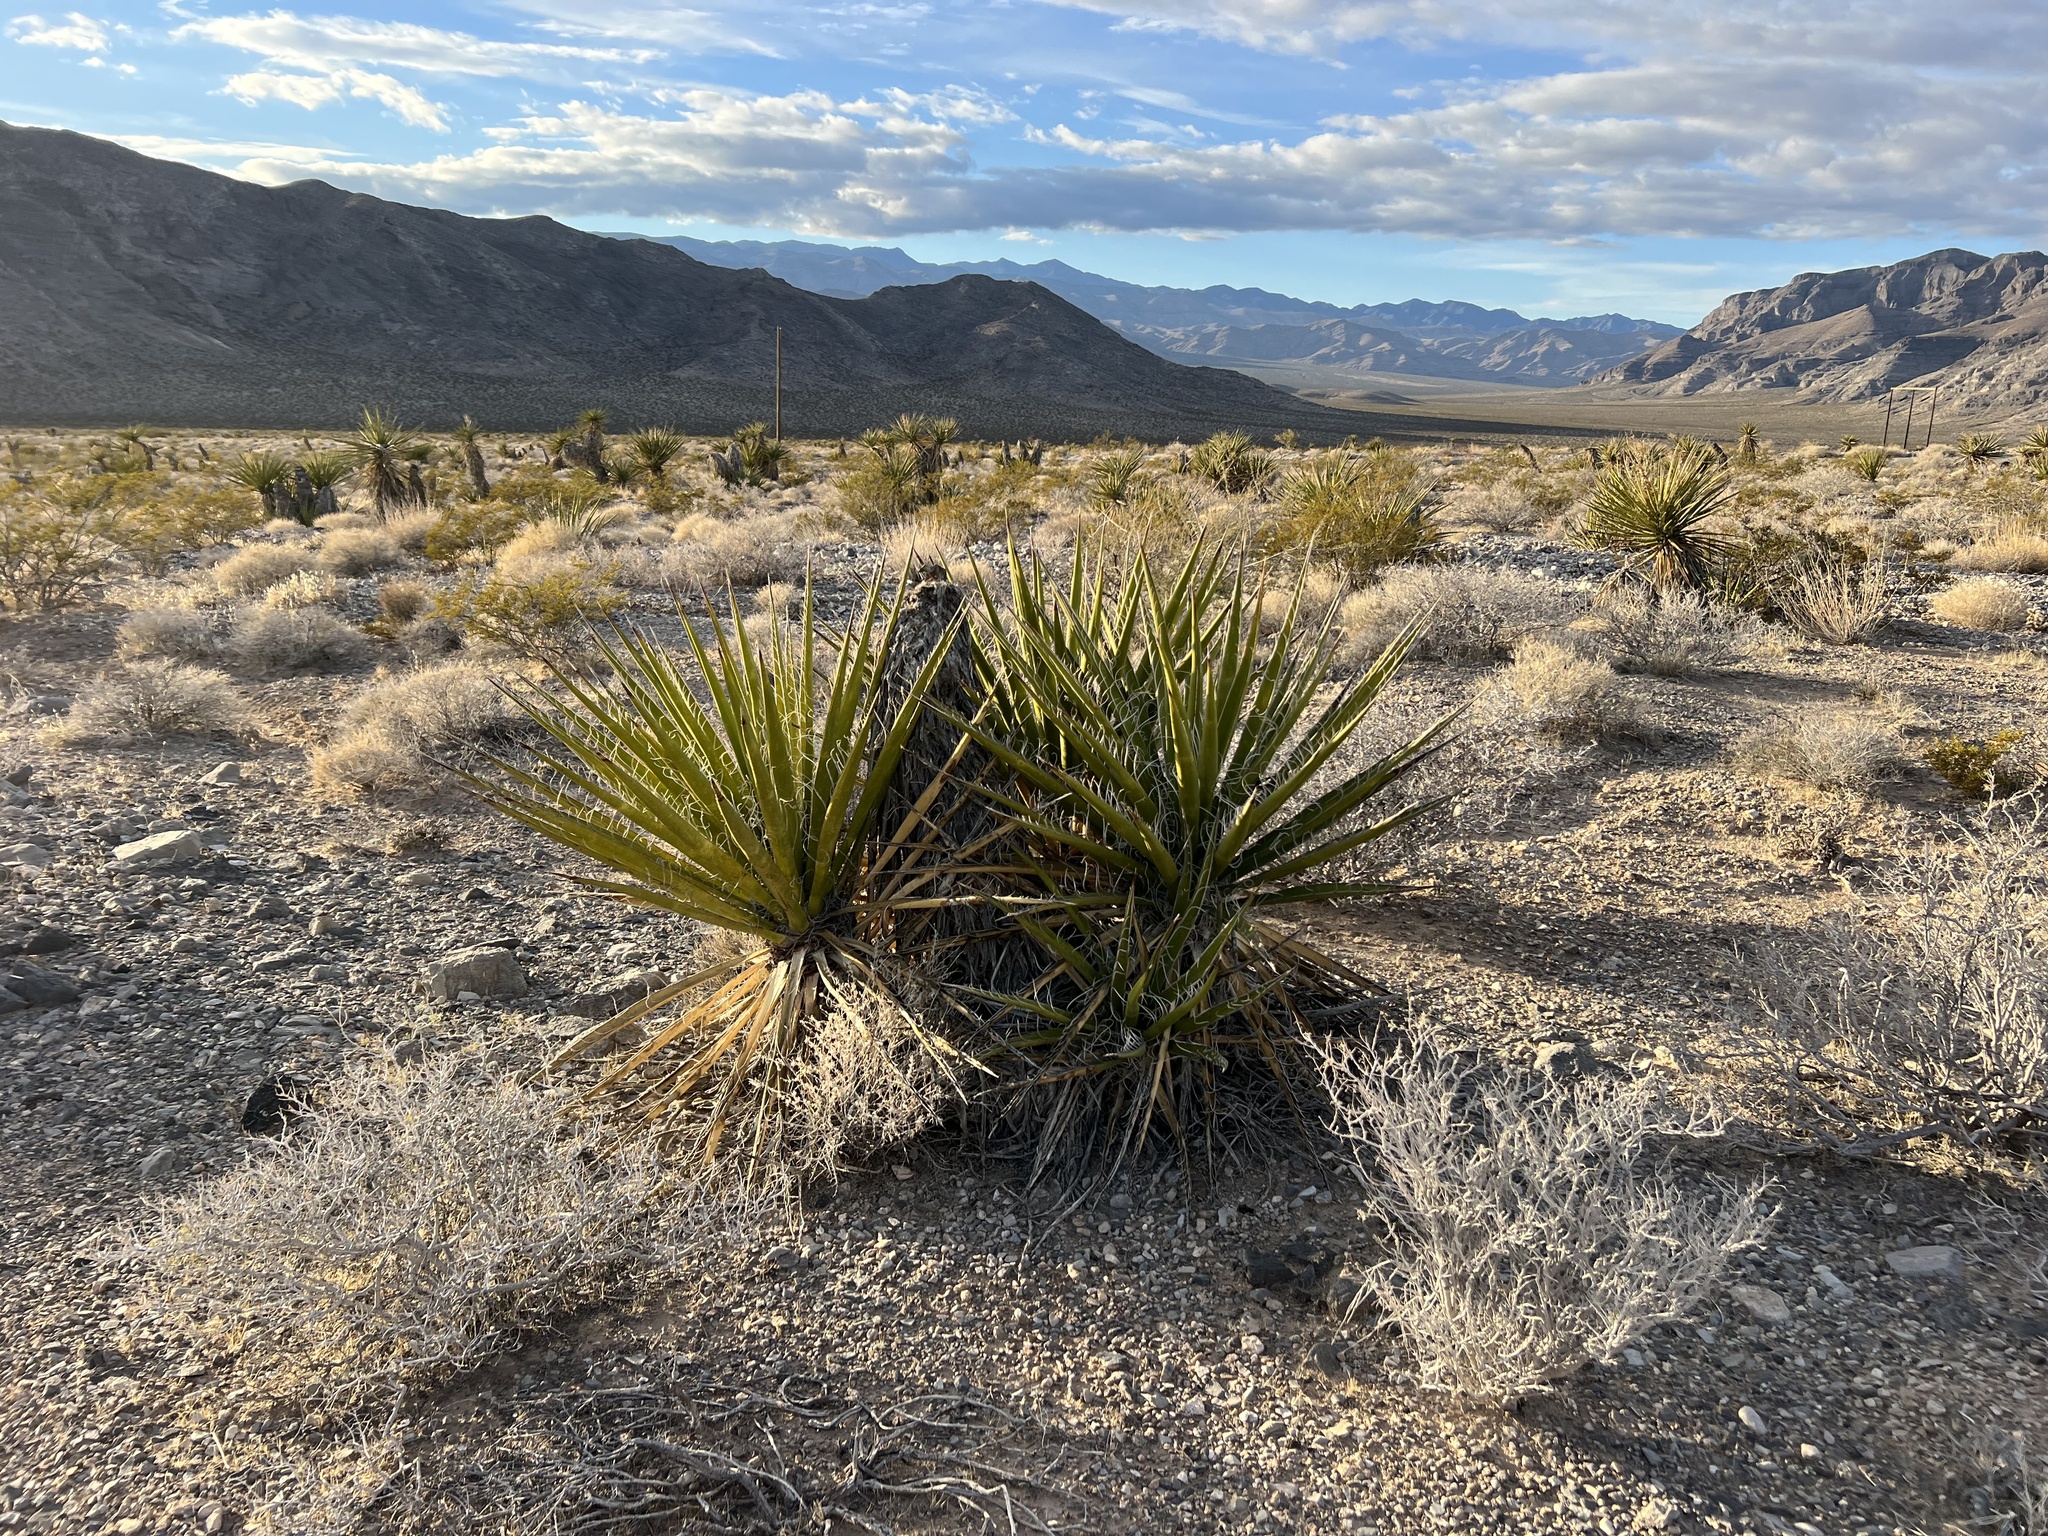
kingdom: Plantae
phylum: Tracheophyta
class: Liliopsida
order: Asparagales
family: Asparagaceae
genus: Yucca
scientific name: Yucca schidigera
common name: Mojave yucca
